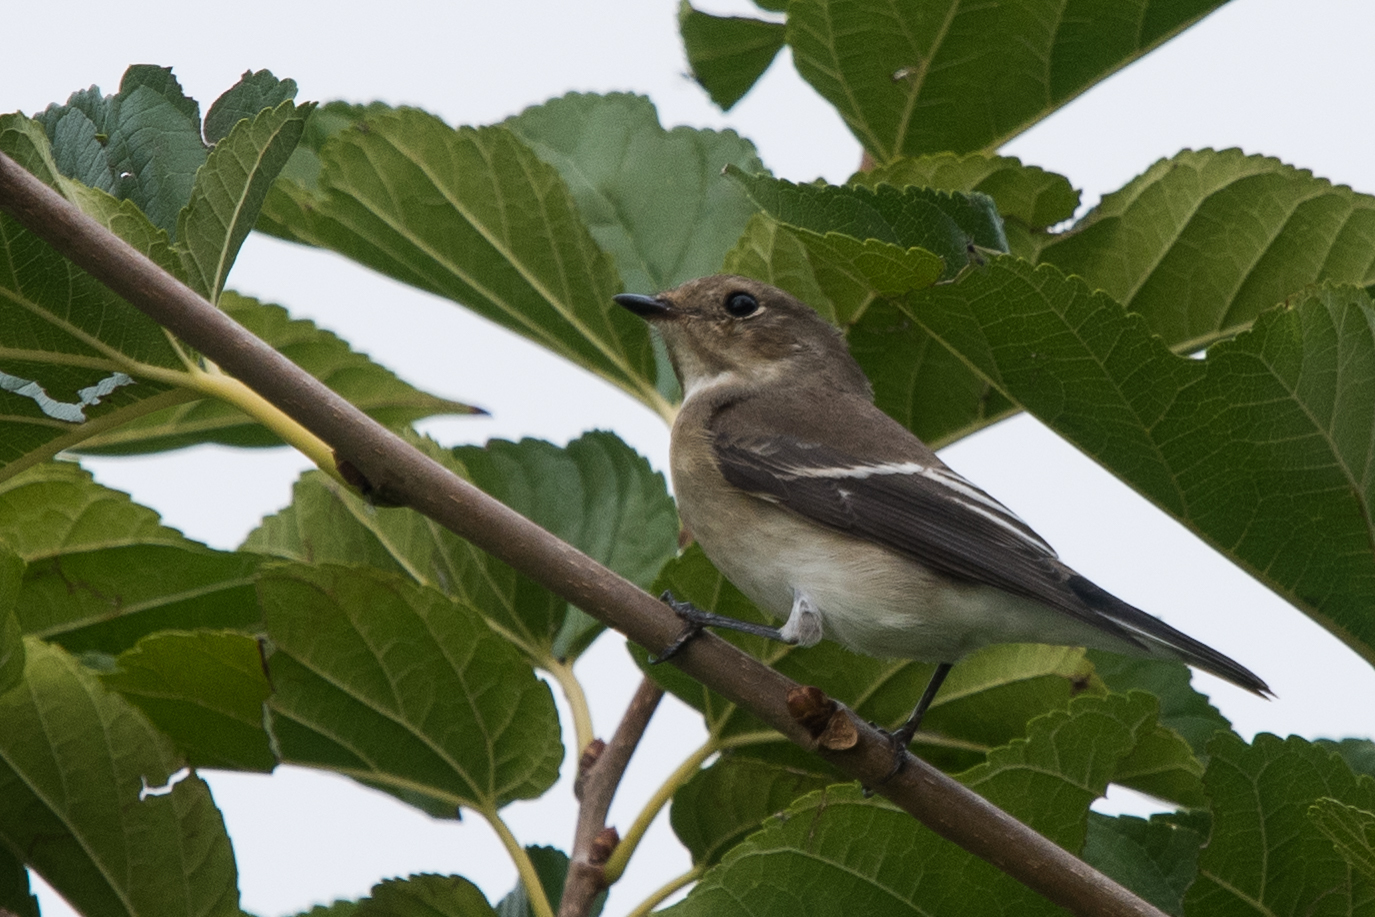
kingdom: Animalia
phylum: Chordata
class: Aves
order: Passeriformes
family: Muscicapidae
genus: Ficedula
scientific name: Ficedula hypoleuca
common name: European pied flycatcher
